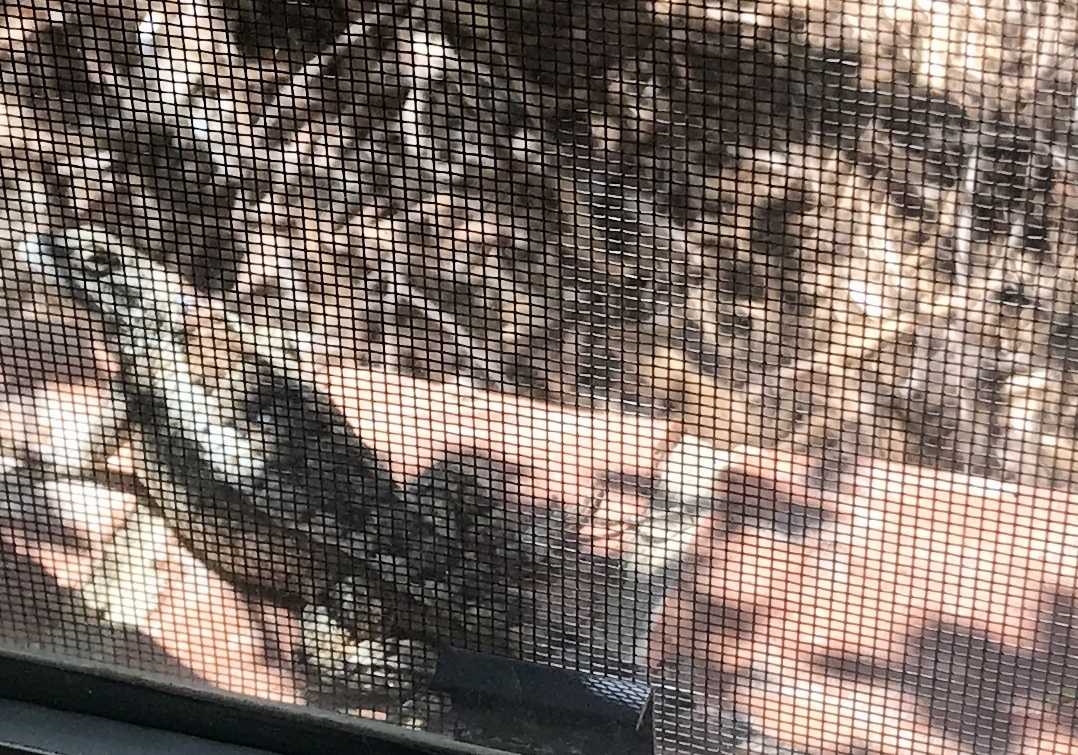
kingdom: Animalia
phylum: Chordata
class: Squamata
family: Phrynosomatidae
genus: Sceloporus
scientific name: Sceloporus olivaceus
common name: Texas spiny lizard
